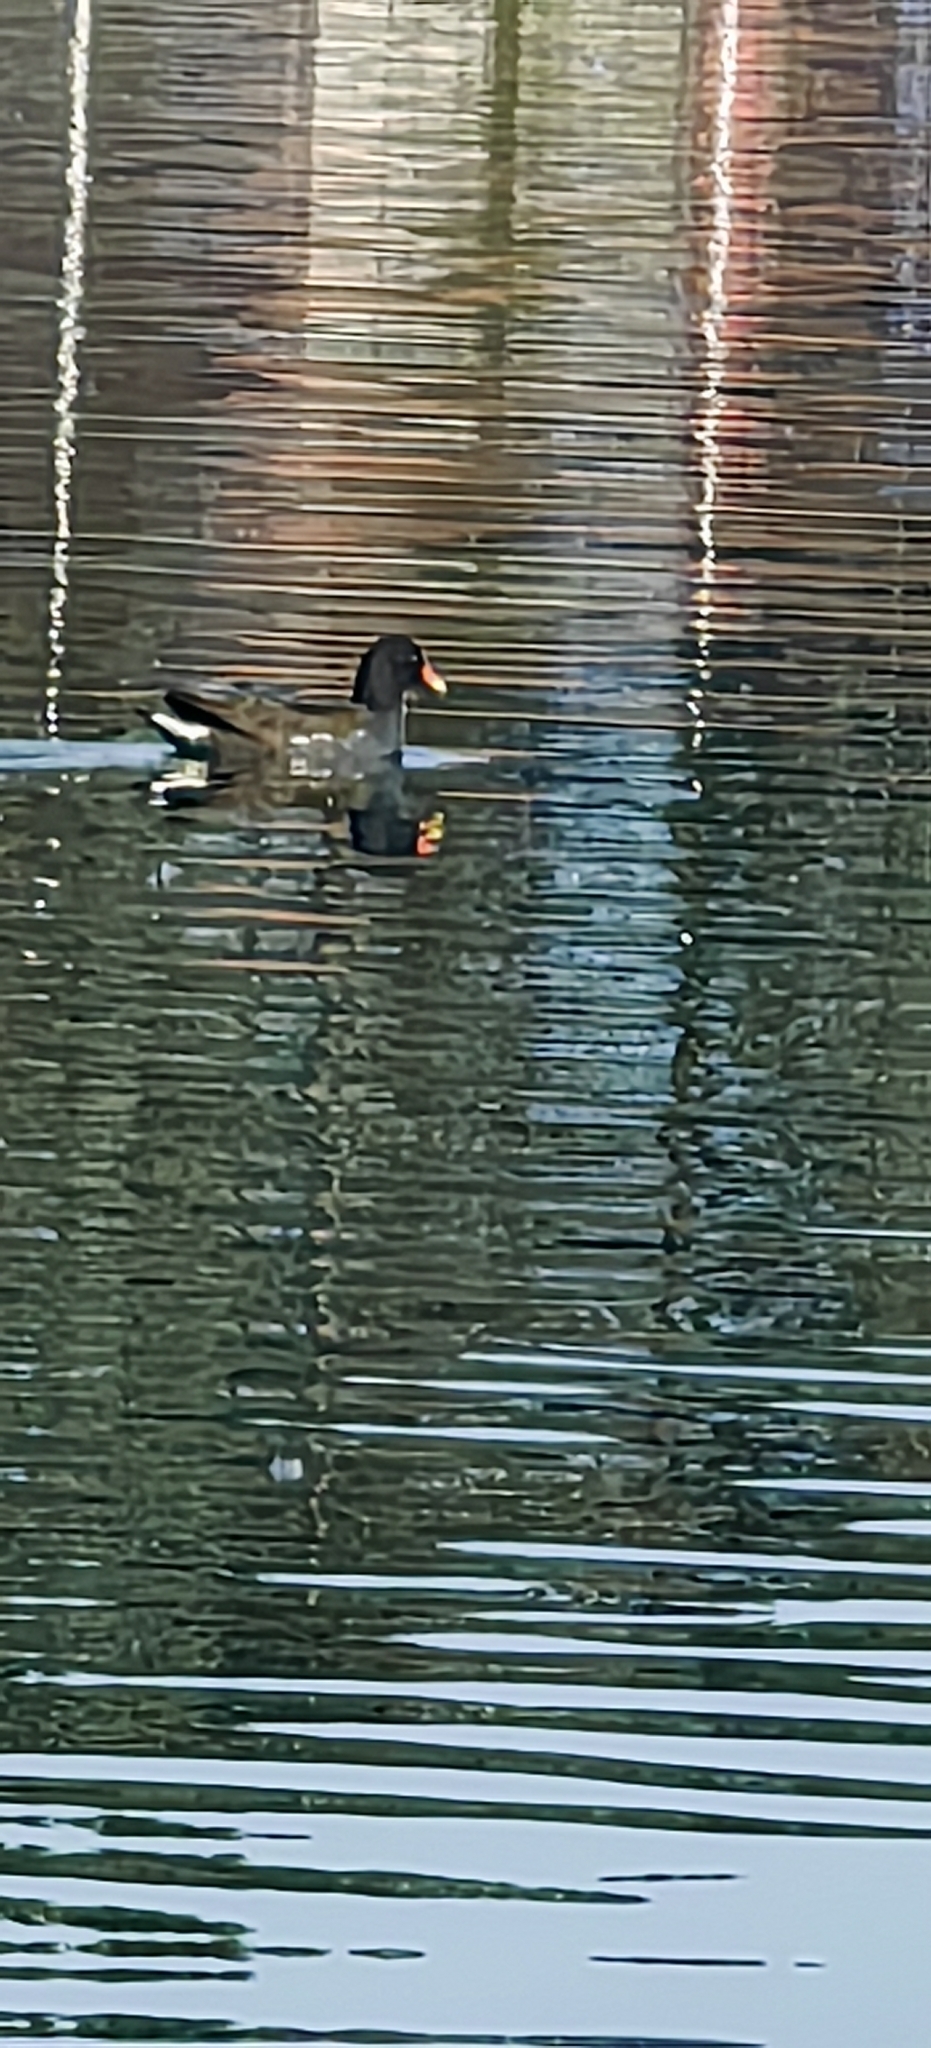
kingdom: Animalia
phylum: Chordata
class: Aves
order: Gruiformes
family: Rallidae
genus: Gallinula
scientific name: Gallinula chloropus
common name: Common moorhen
